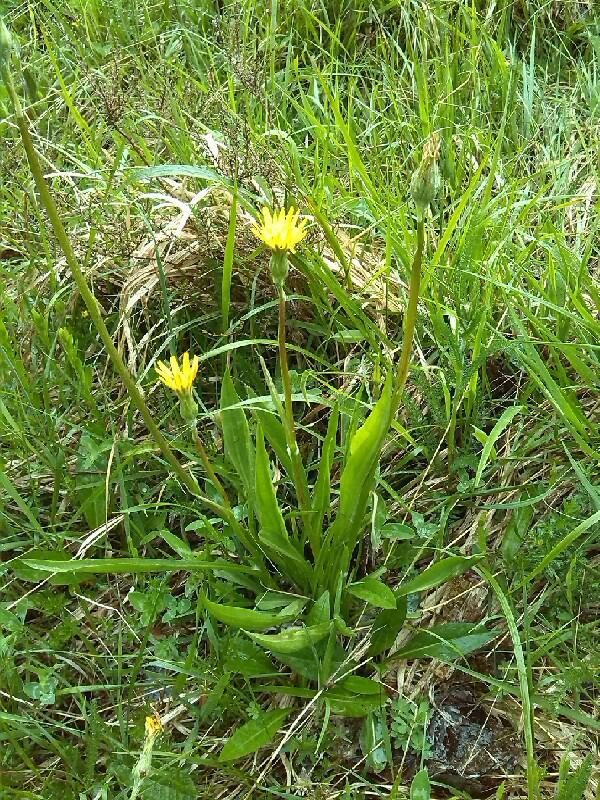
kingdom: Plantae
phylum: Tracheophyta
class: Magnoliopsida
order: Asterales
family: Asteraceae
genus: Scorzonera
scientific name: Scorzonera humilis
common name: Viper's-grass
